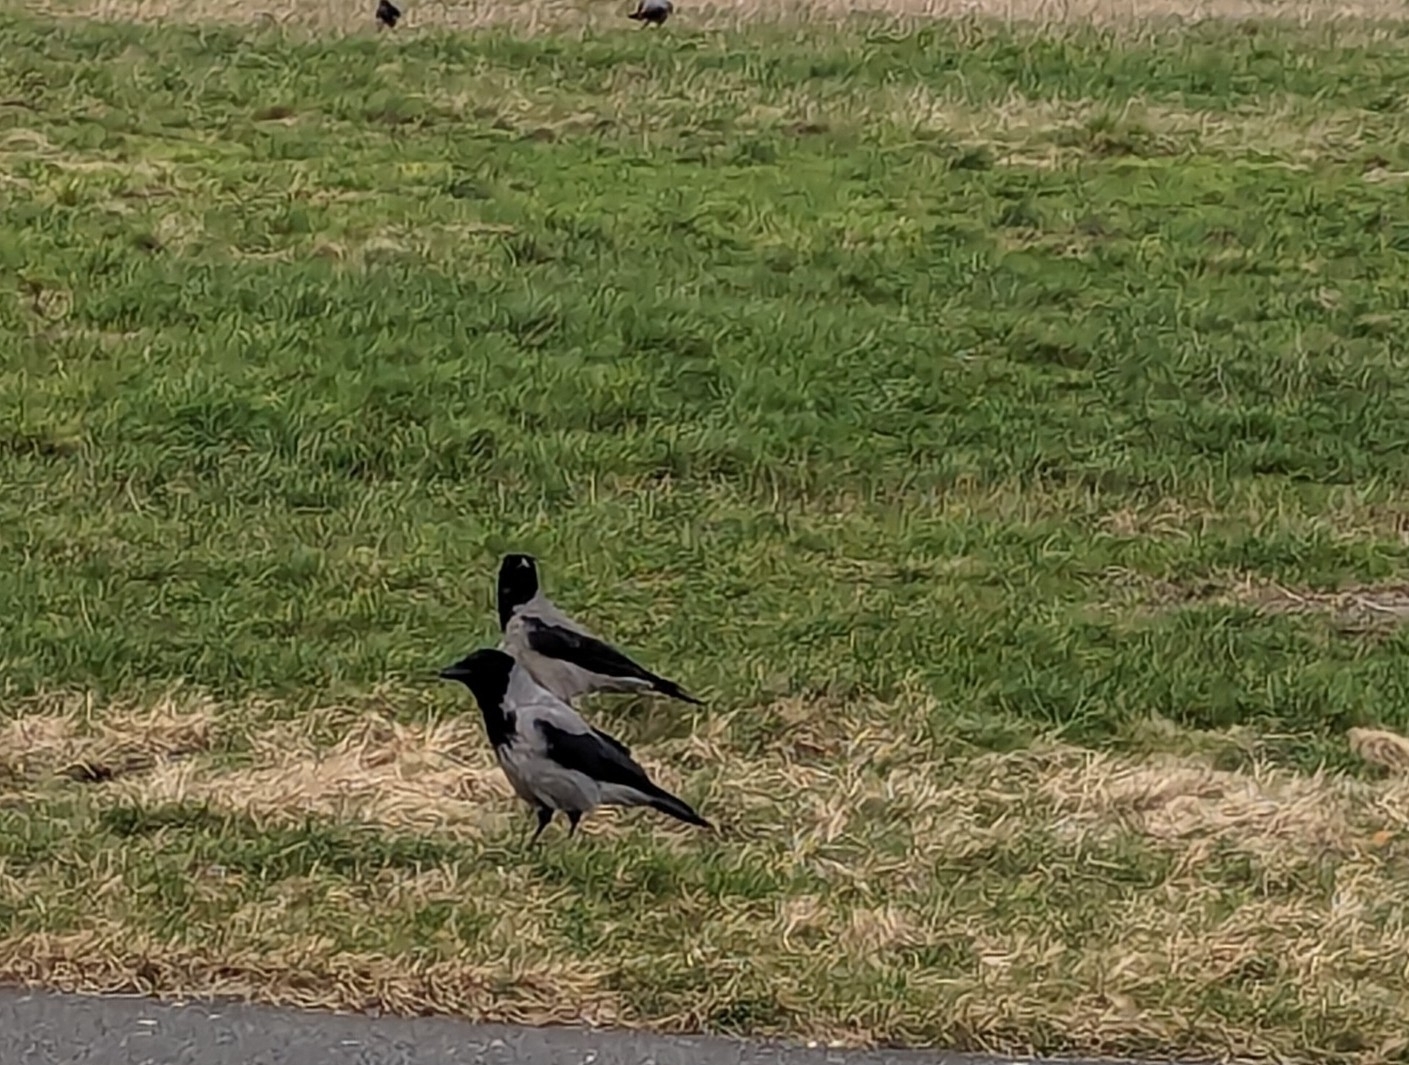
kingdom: Animalia
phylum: Chordata
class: Aves
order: Passeriformes
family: Corvidae
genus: Corvus
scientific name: Corvus cornix
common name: Hooded crow
